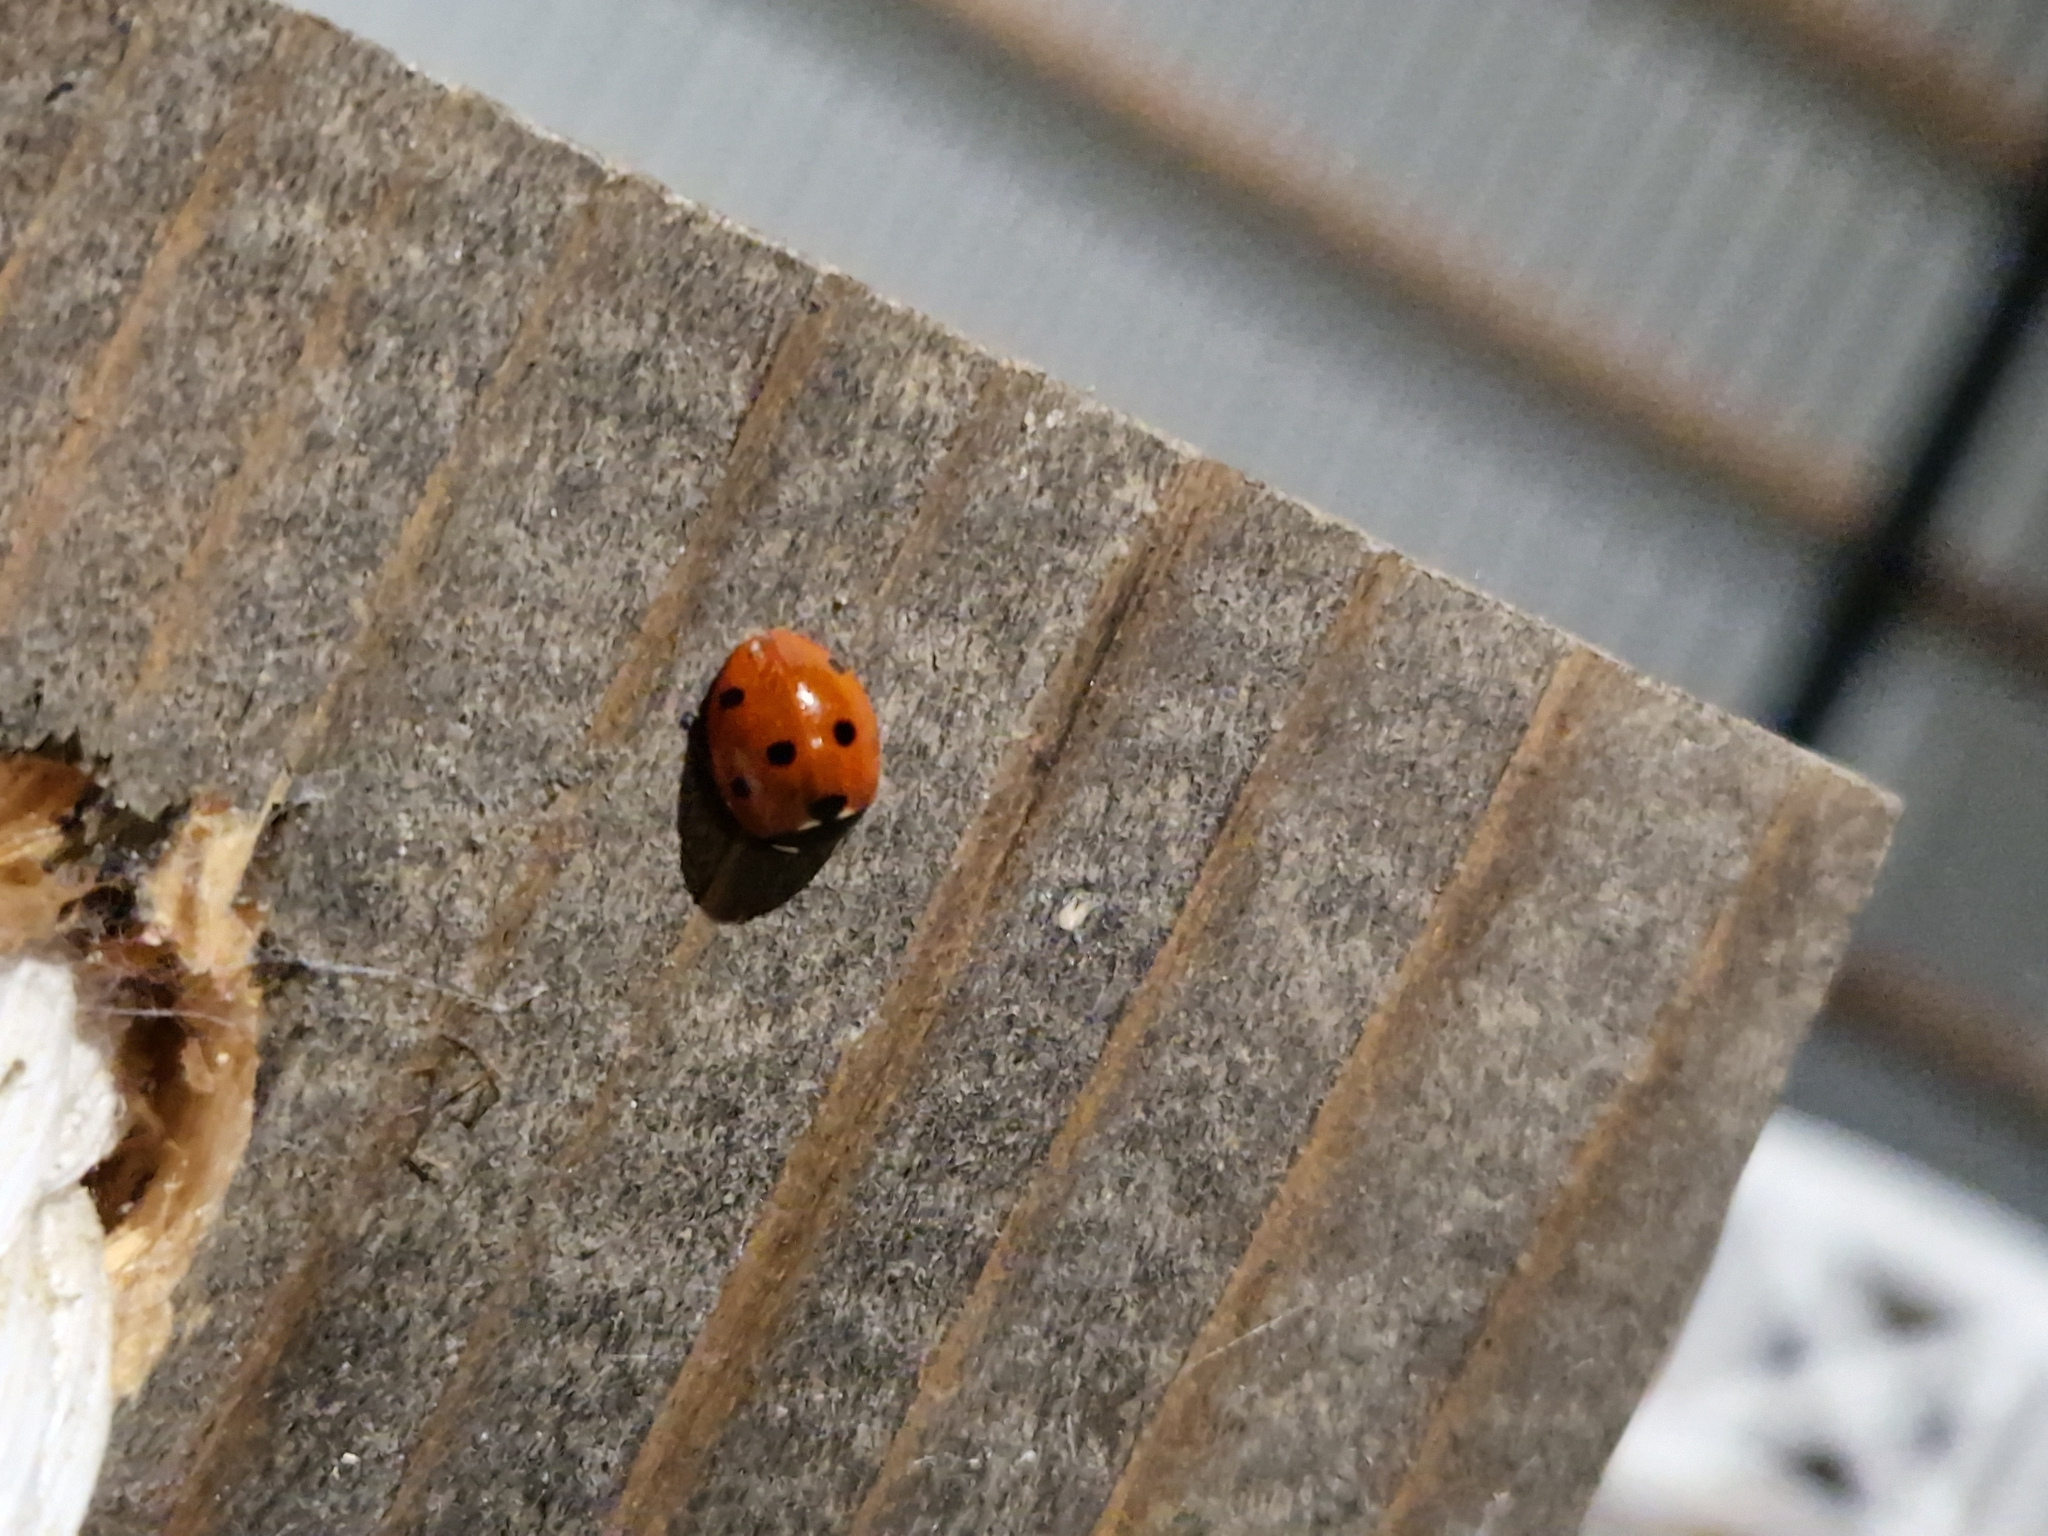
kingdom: Animalia
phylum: Arthropoda
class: Insecta
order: Coleoptera
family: Coccinellidae
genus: Coccinella
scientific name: Coccinella septempunctata
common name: Sevenspotted lady beetle
